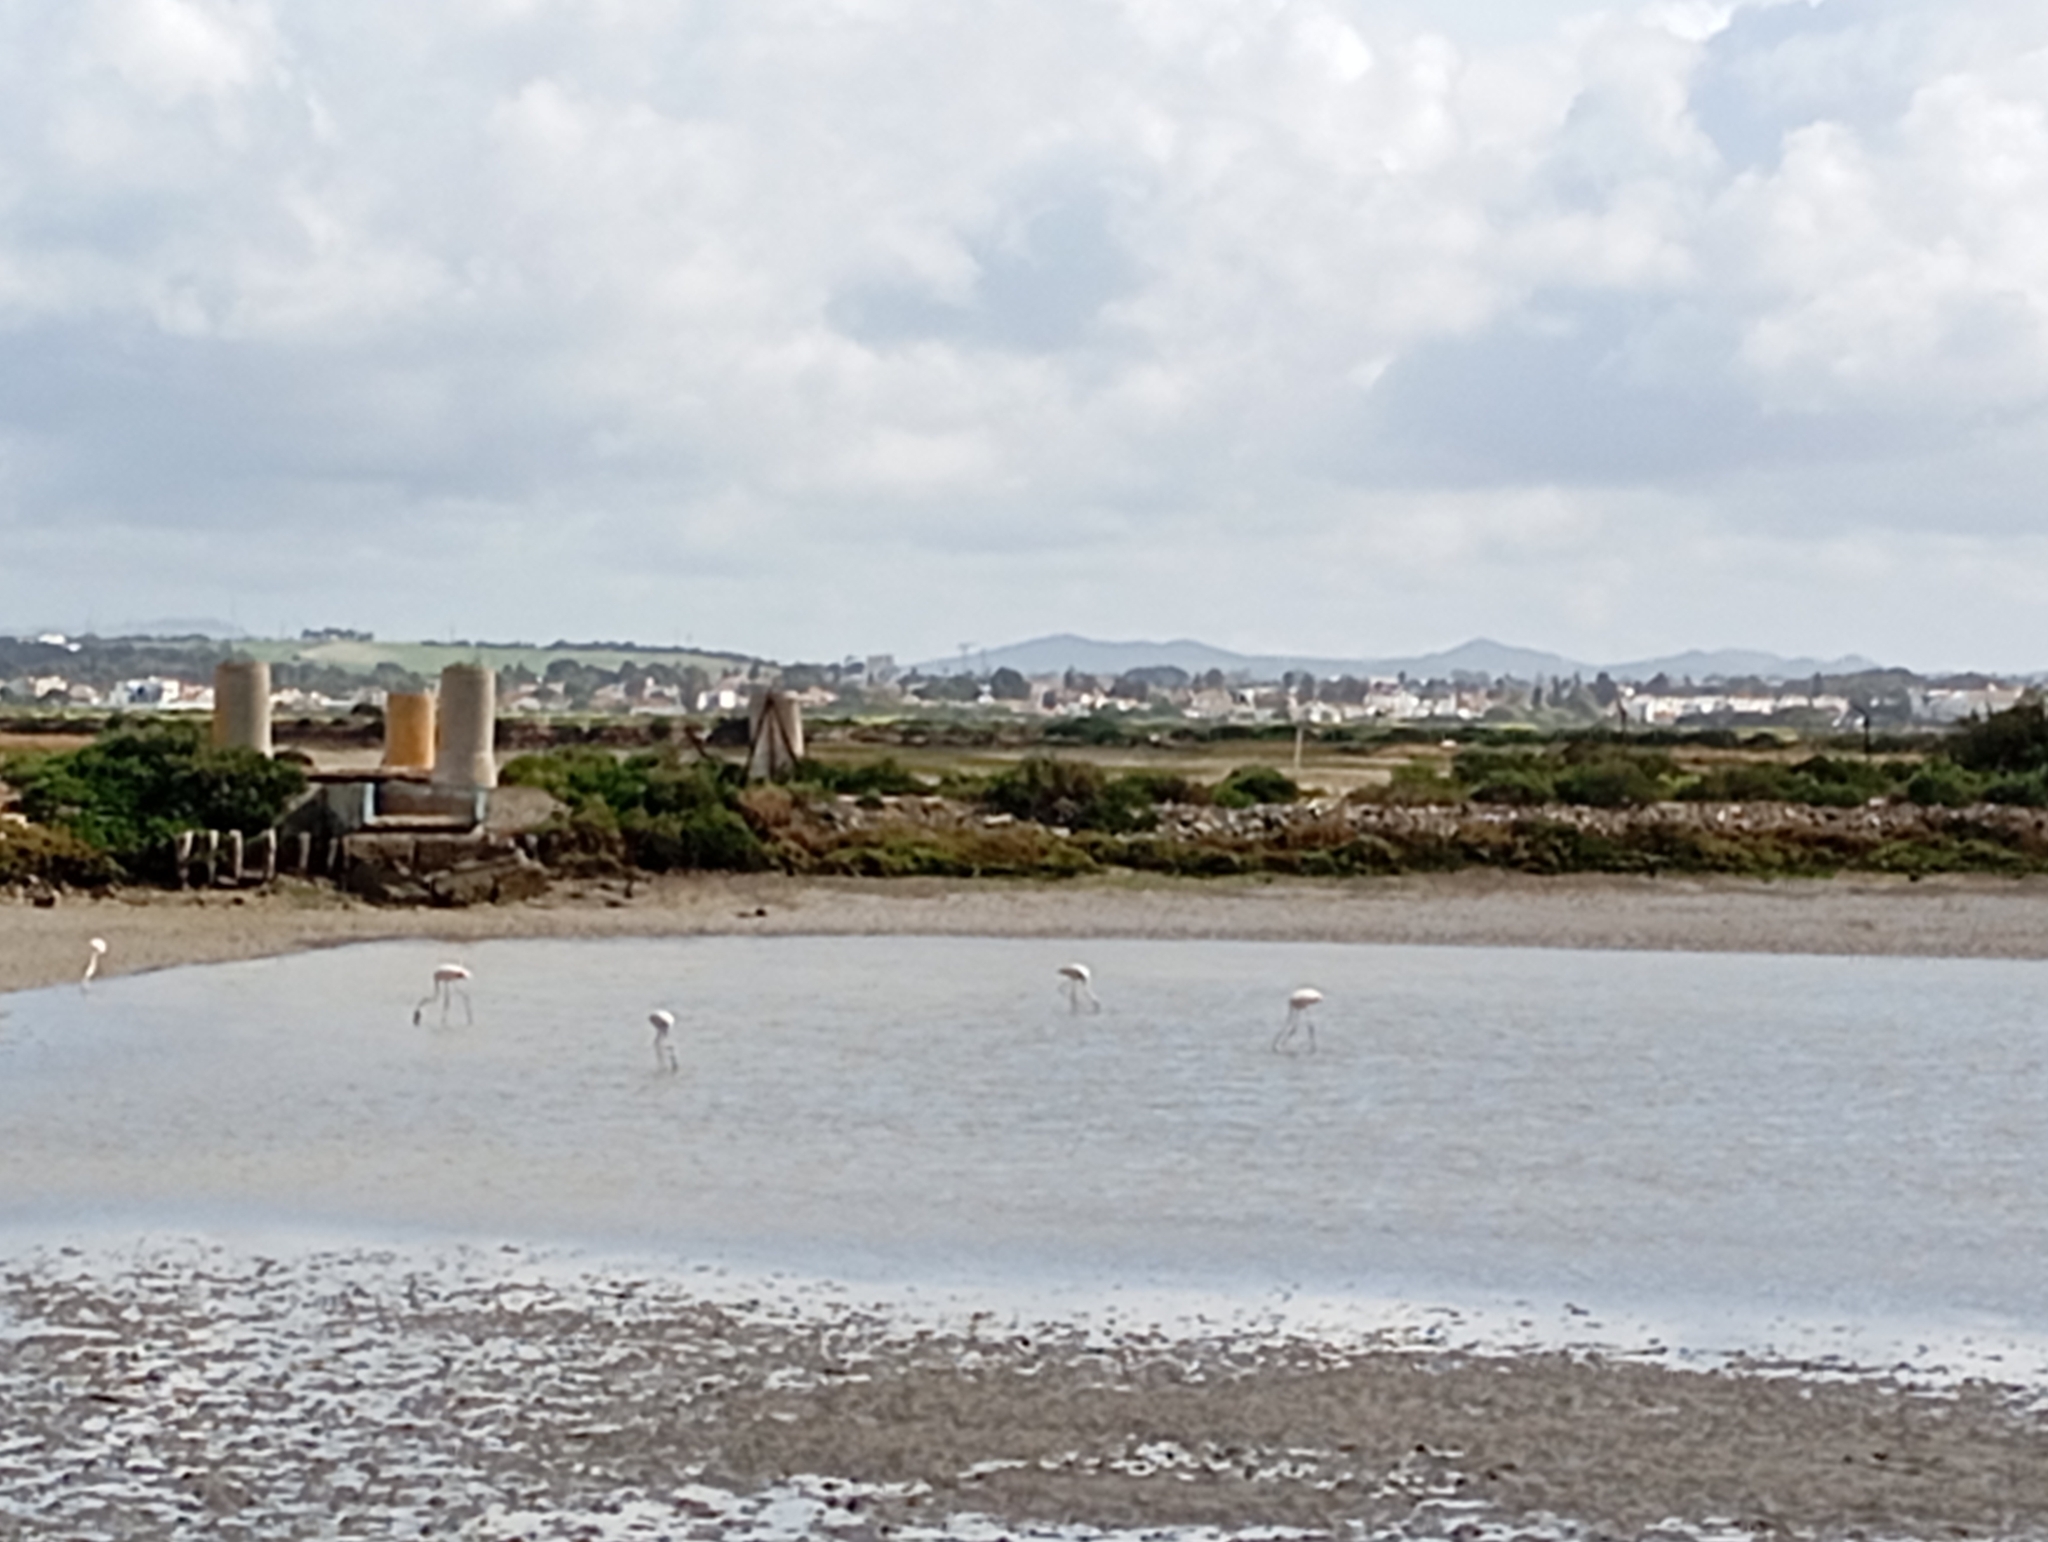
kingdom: Animalia
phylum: Chordata
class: Aves
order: Phoenicopteriformes
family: Phoenicopteridae
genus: Phoenicopterus
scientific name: Phoenicopterus roseus
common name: Greater flamingo
